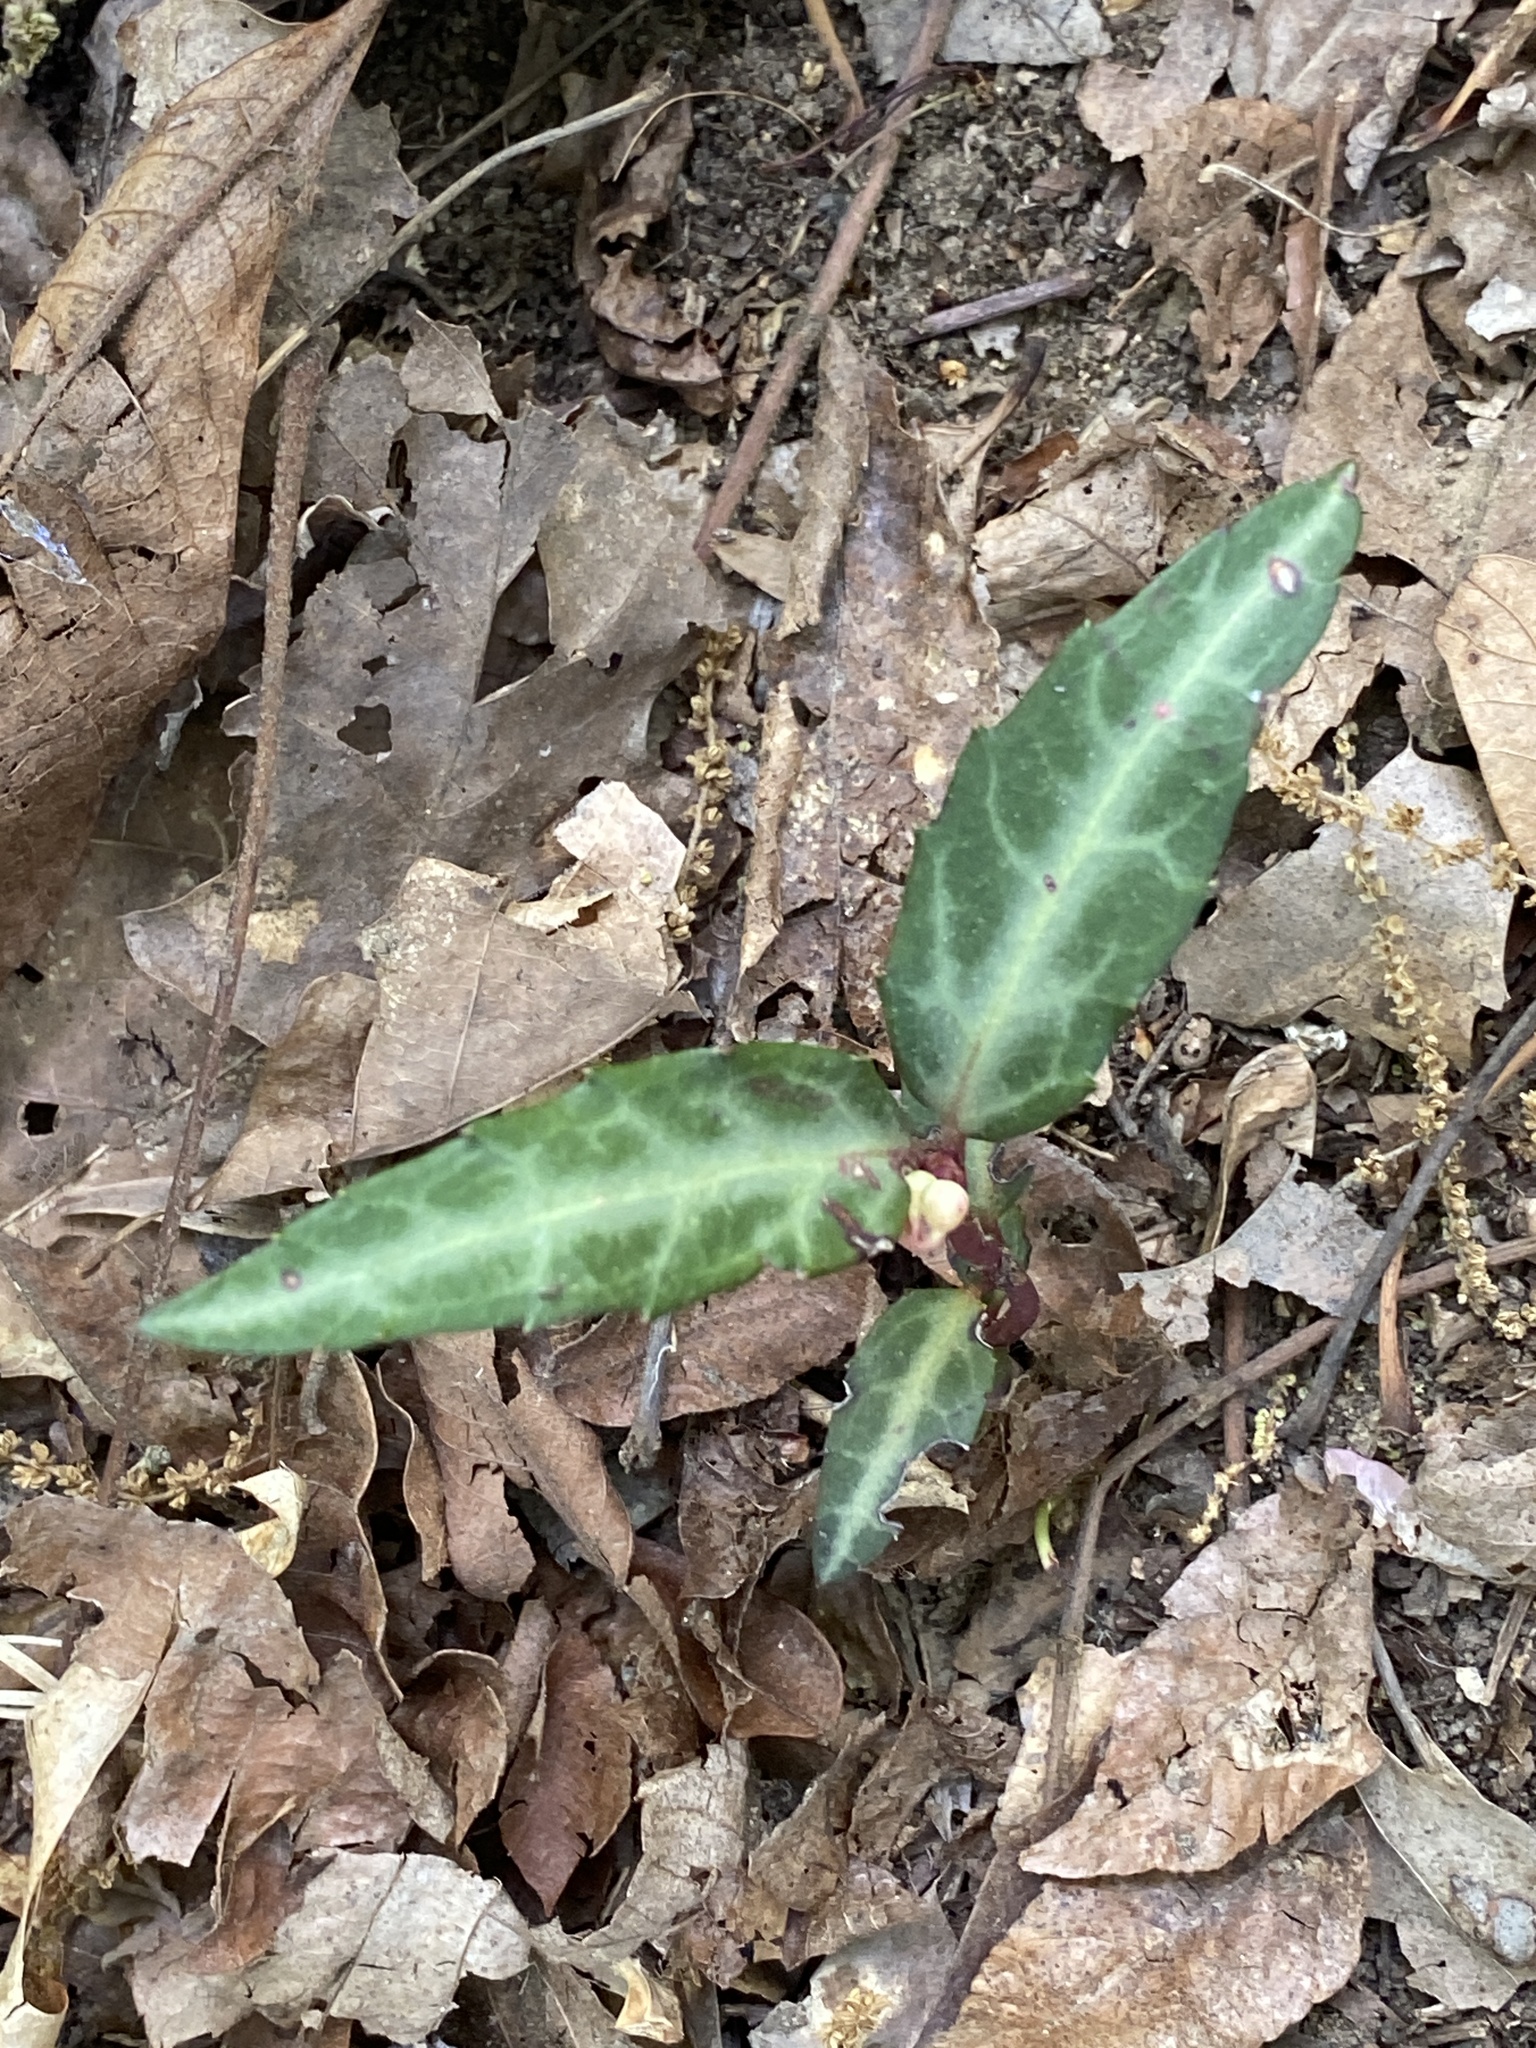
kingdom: Plantae
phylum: Tracheophyta
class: Magnoliopsida
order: Ericales
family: Ericaceae
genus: Chimaphila
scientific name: Chimaphila maculata
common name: Spotted pipsissewa
